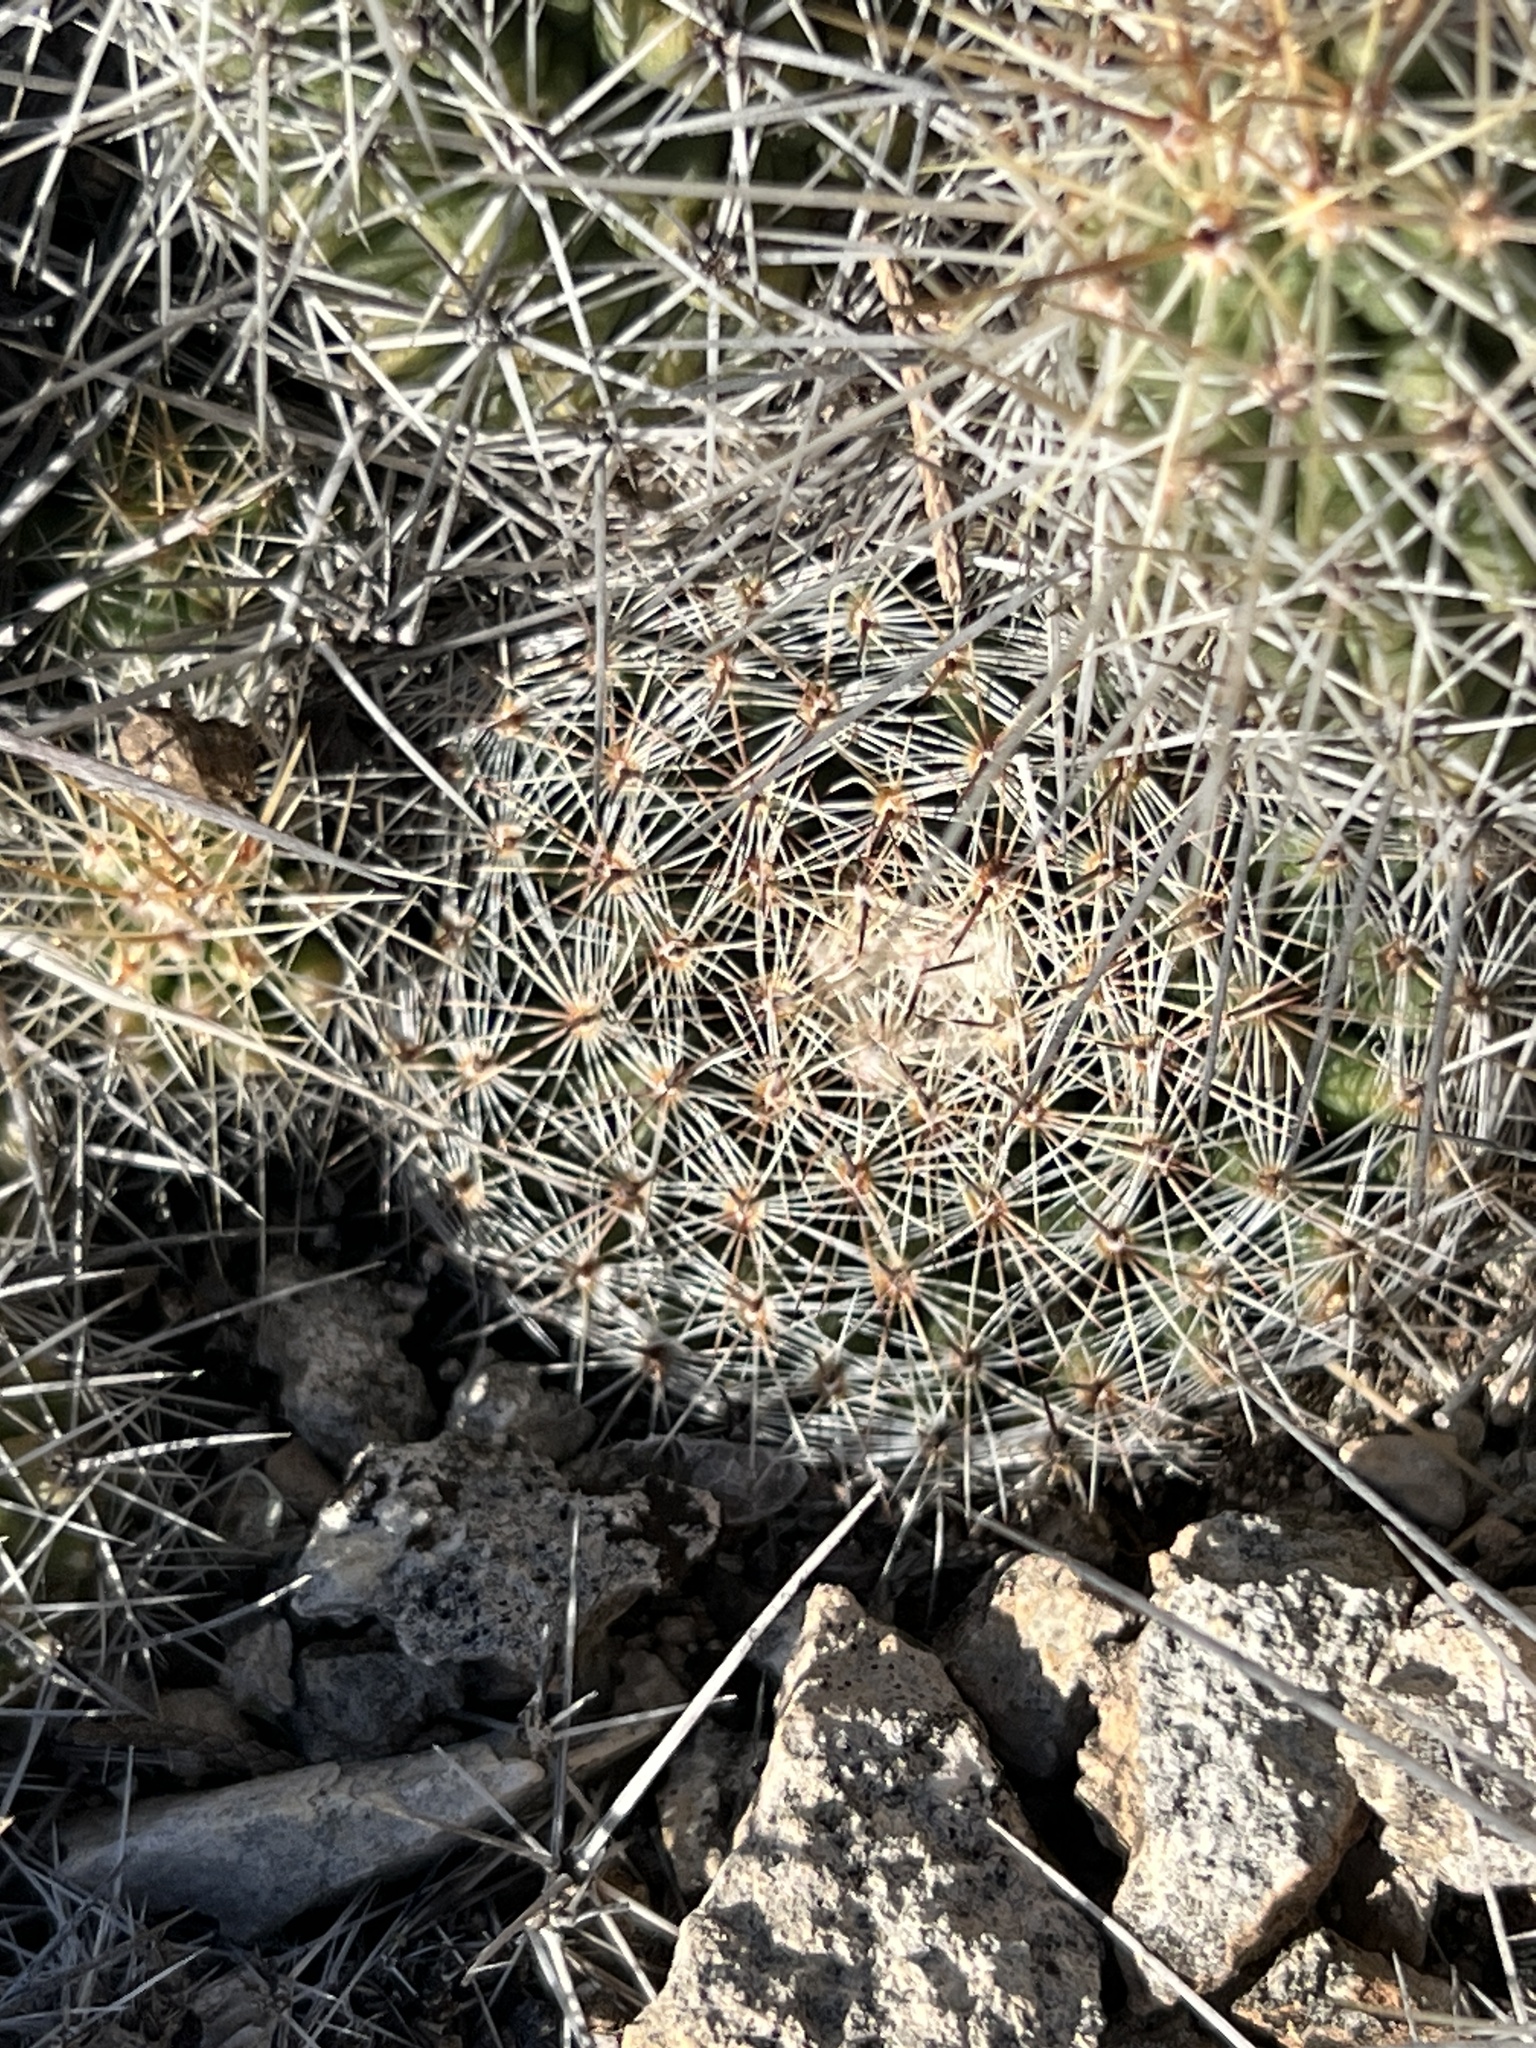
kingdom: Plantae
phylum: Tracheophyta
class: Magnoliopsida
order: Caryophyllales
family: Cactaceae
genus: Mammillaria
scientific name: Mammillaria heyderi
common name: Little nipple cactus
